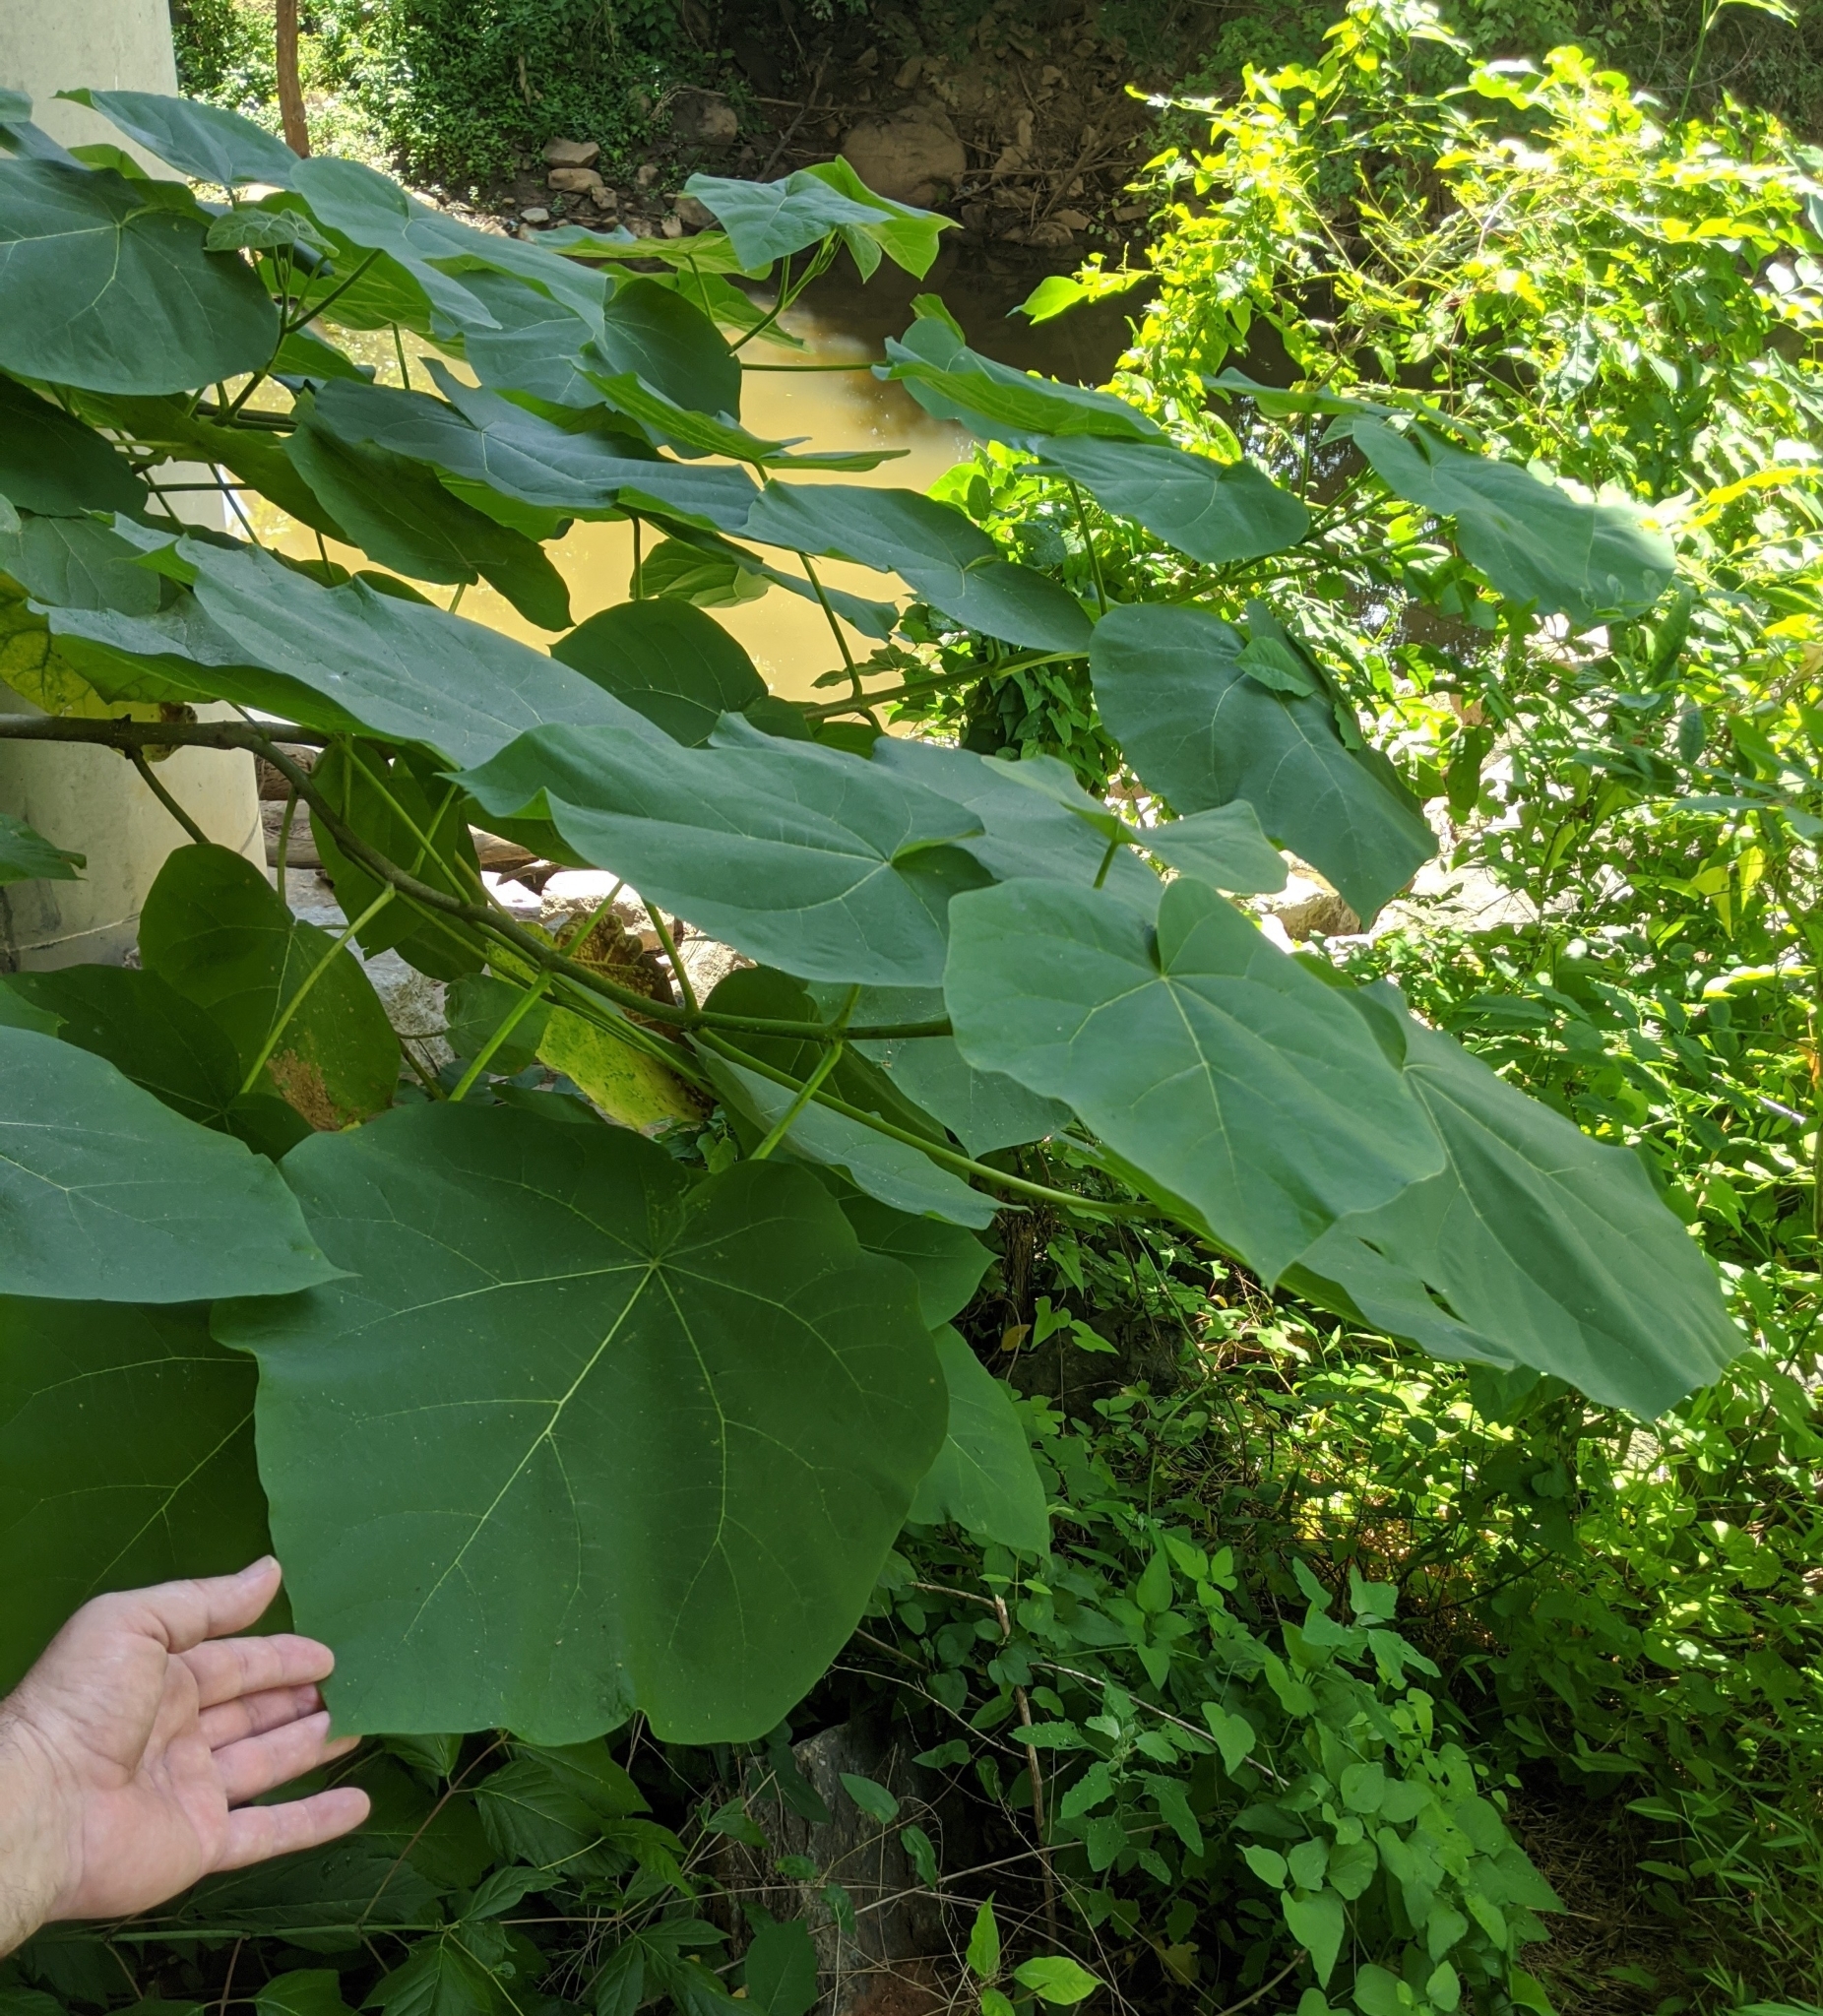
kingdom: Plantae
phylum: Tracheophyta
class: Magnoliopsida
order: Lamiales
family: Paulowniaceae
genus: Paulownia
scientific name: Paulownia tomentosa
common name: Foxglove-tree
